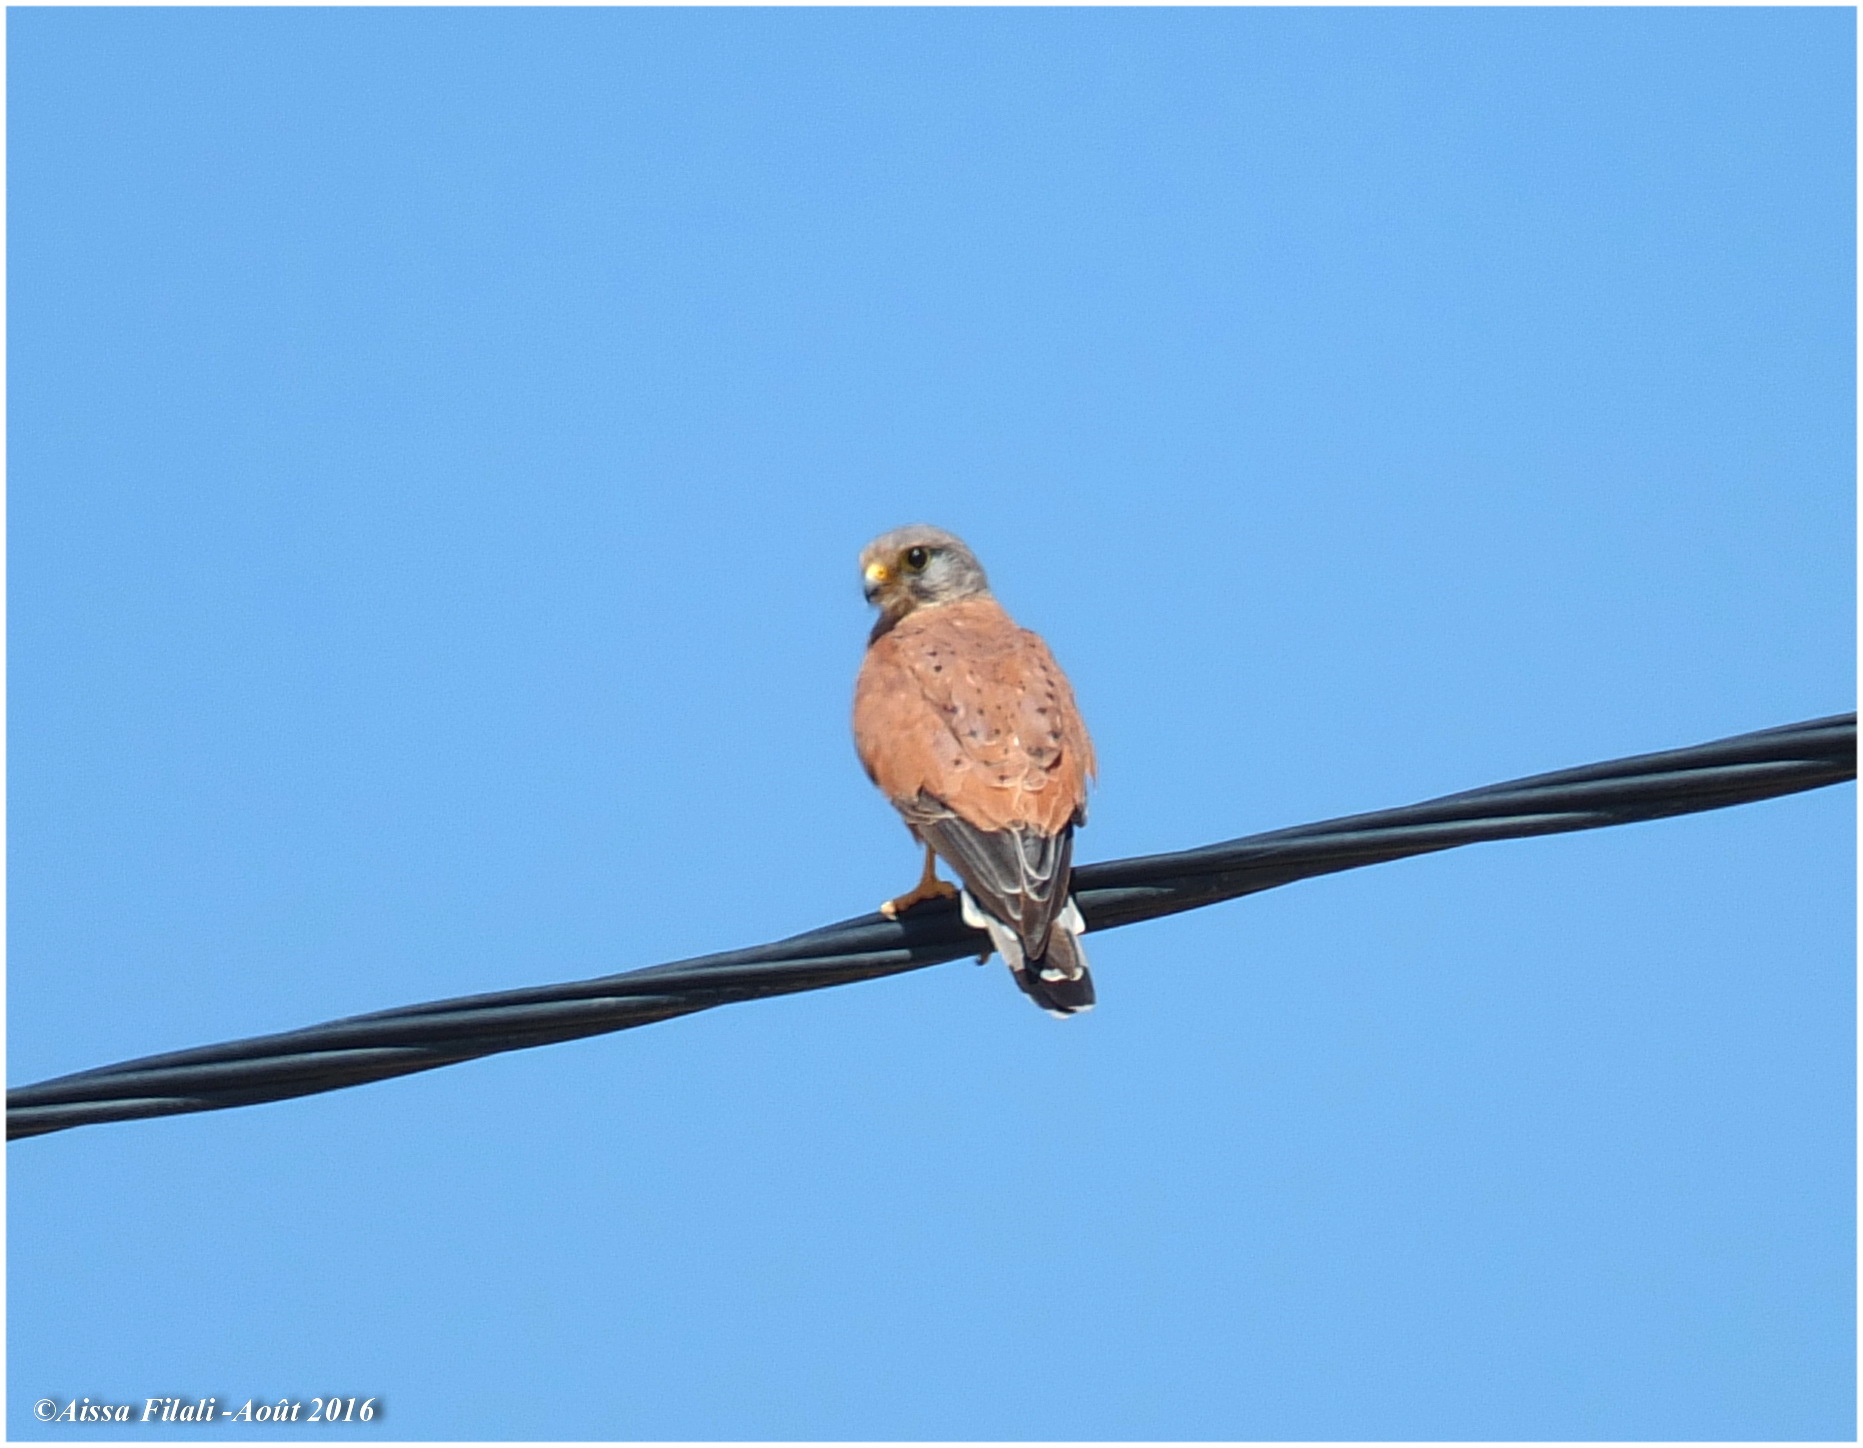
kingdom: Animalia
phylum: Chordata
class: Aves
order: Falconiformes
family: Falconidae
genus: Falco
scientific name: Falco tinnunculus
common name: Common kestrel
